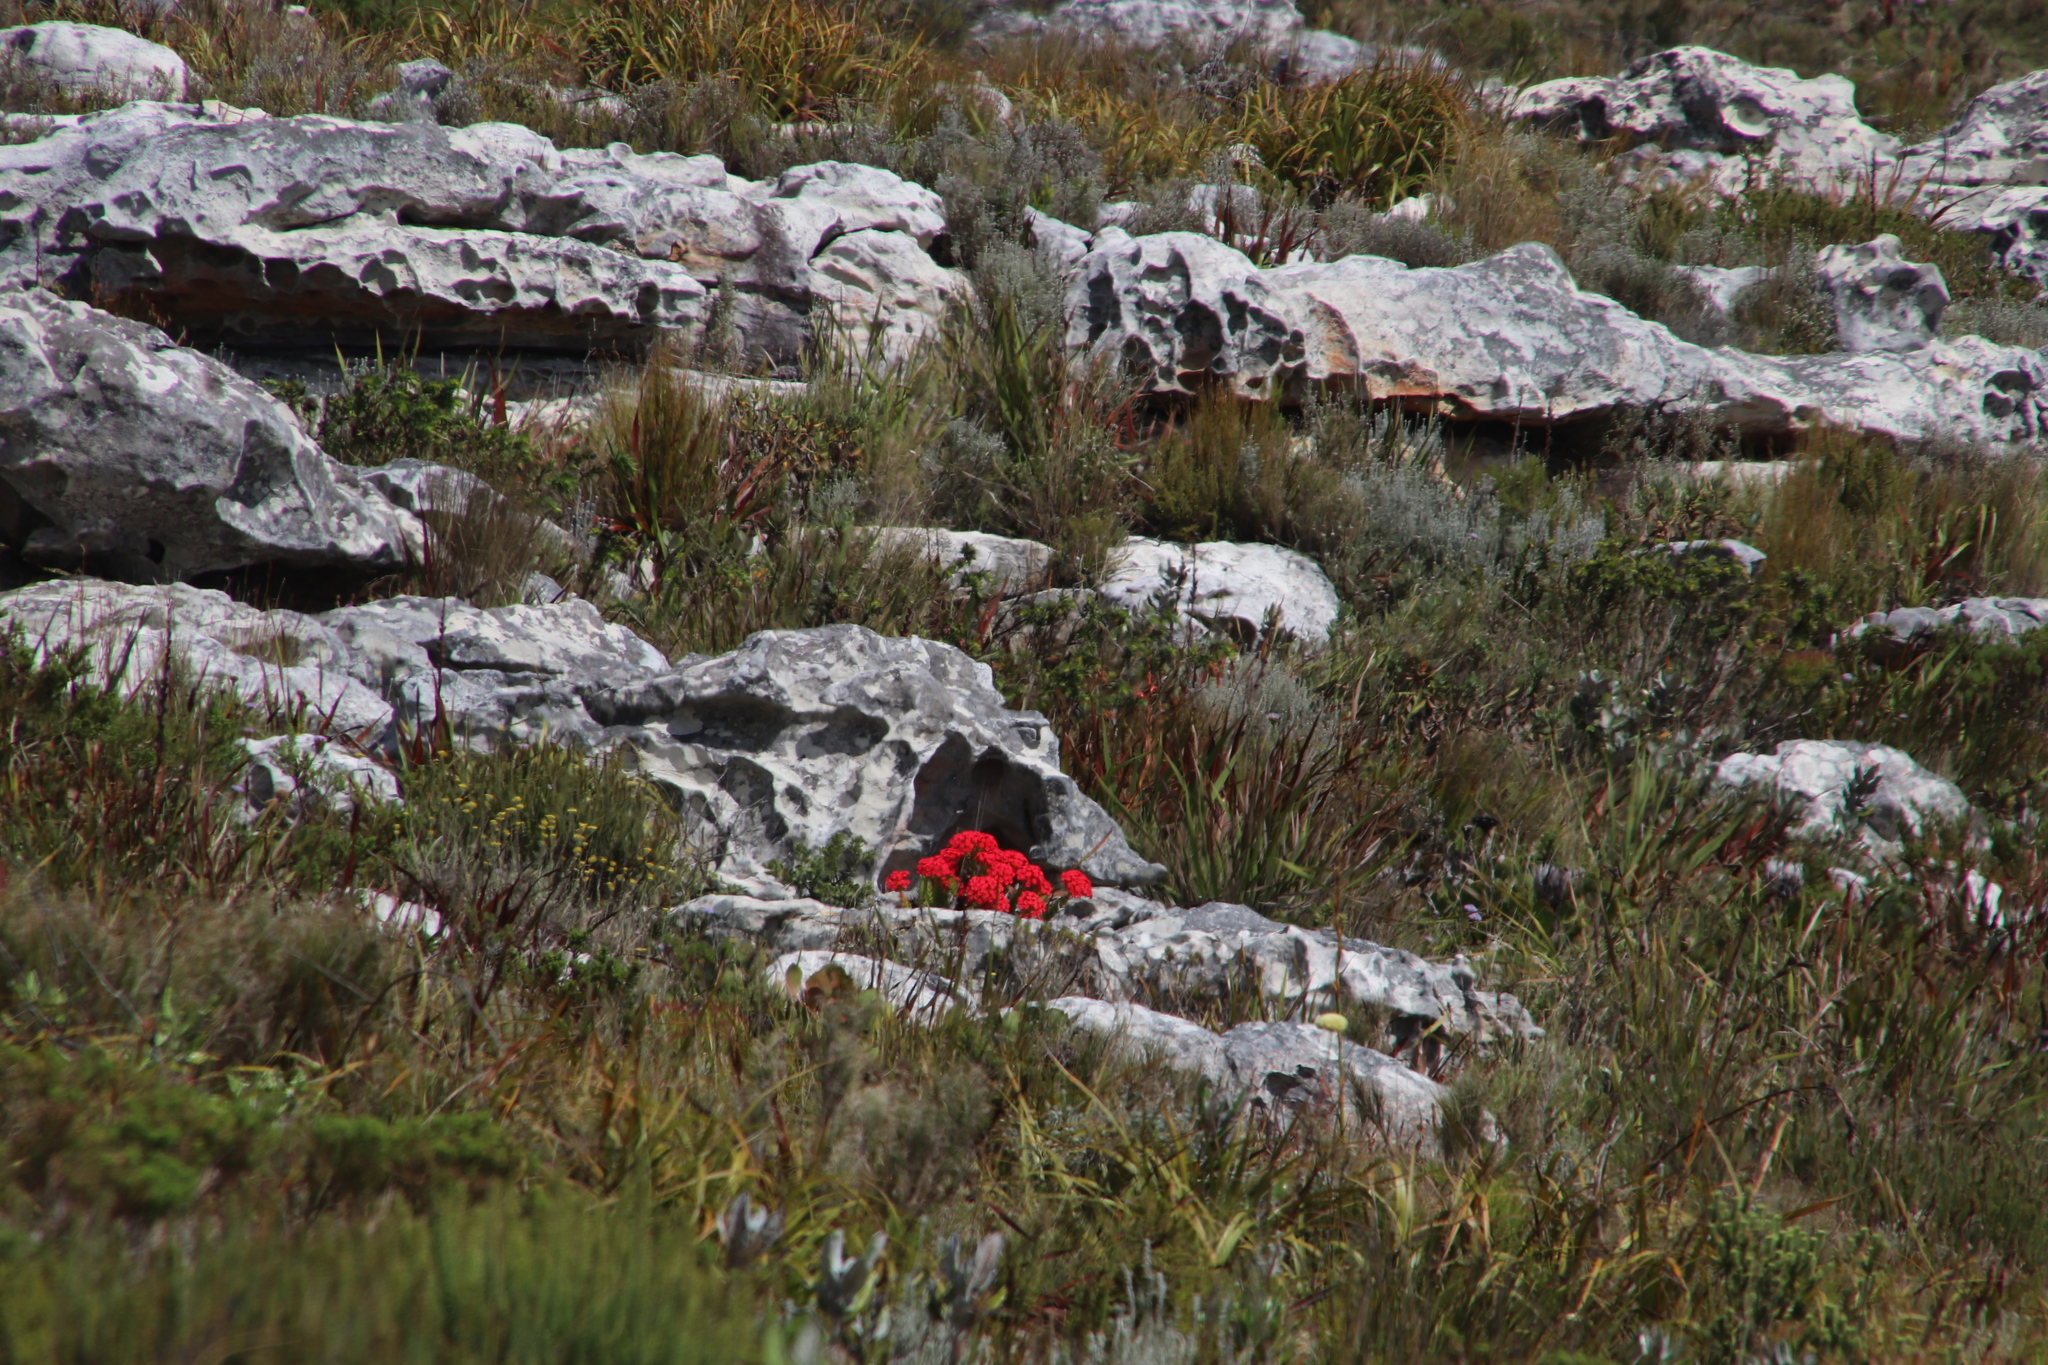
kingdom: Plantae
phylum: Tracheophyta
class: Magnoliopsida
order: Saxifragales
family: Crassulaceae
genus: Crassula
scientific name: Crassula coccinea
